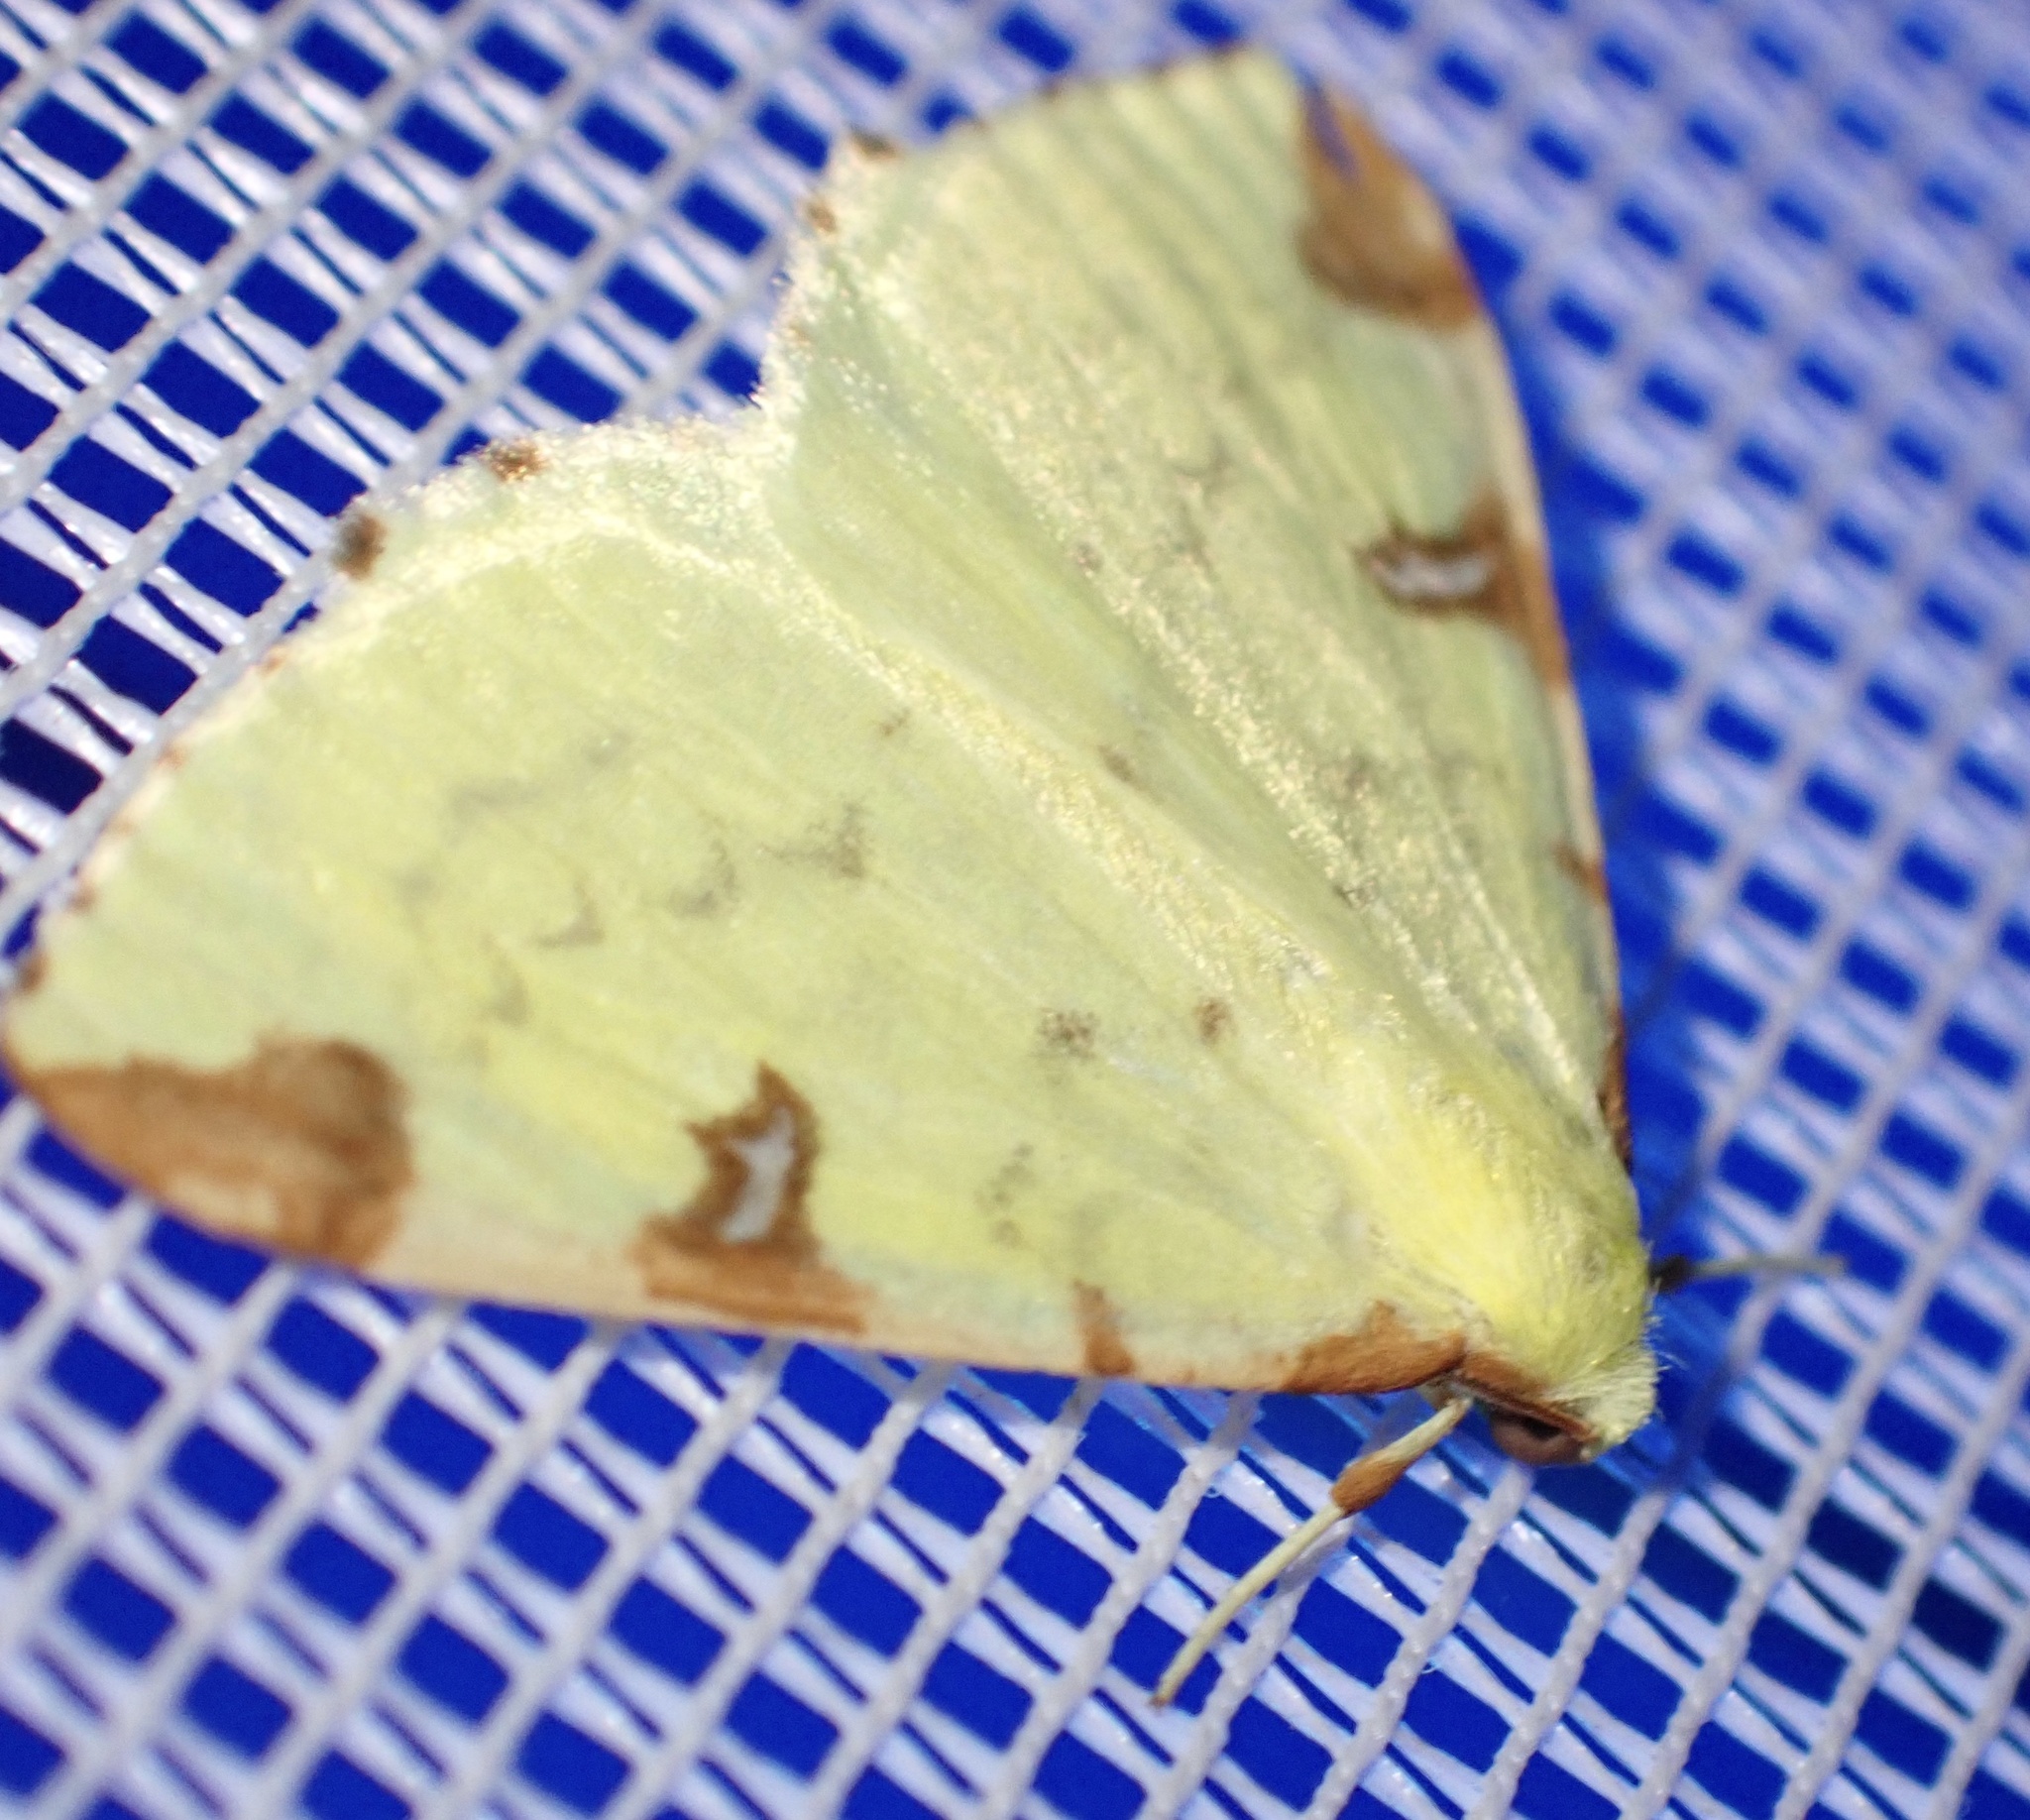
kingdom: Animalia
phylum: Arthropoda
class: Insecta
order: Lepidoptera
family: Geometridae
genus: Opisthograptis
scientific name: Opisthograptis luteolata
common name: Brimstone moth
